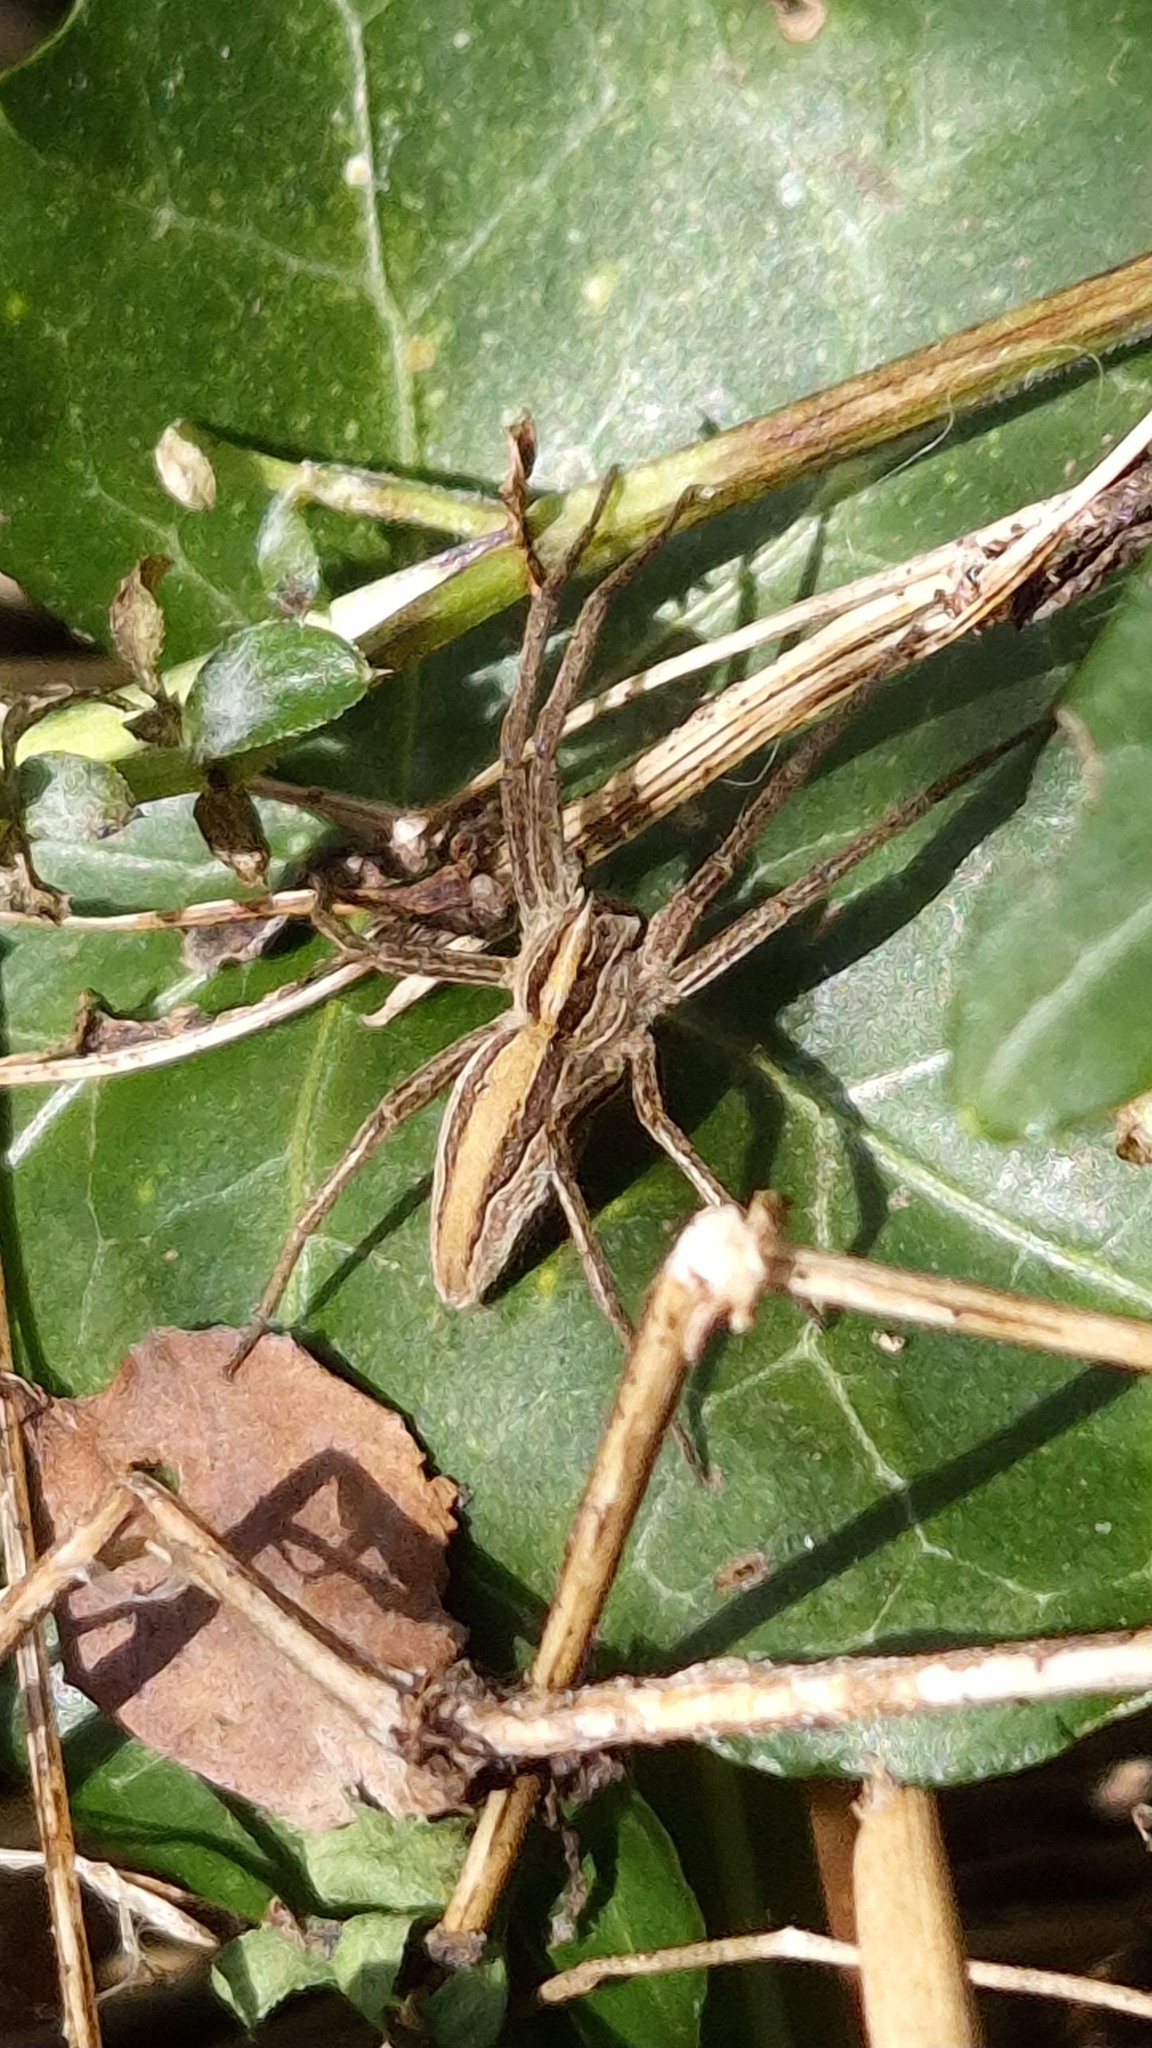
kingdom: Animalia
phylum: Arthropoda
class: Arachnida
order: Araneae
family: Pisauridae
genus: Pisaura
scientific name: Pisaura mirabilis
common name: Tent spider
